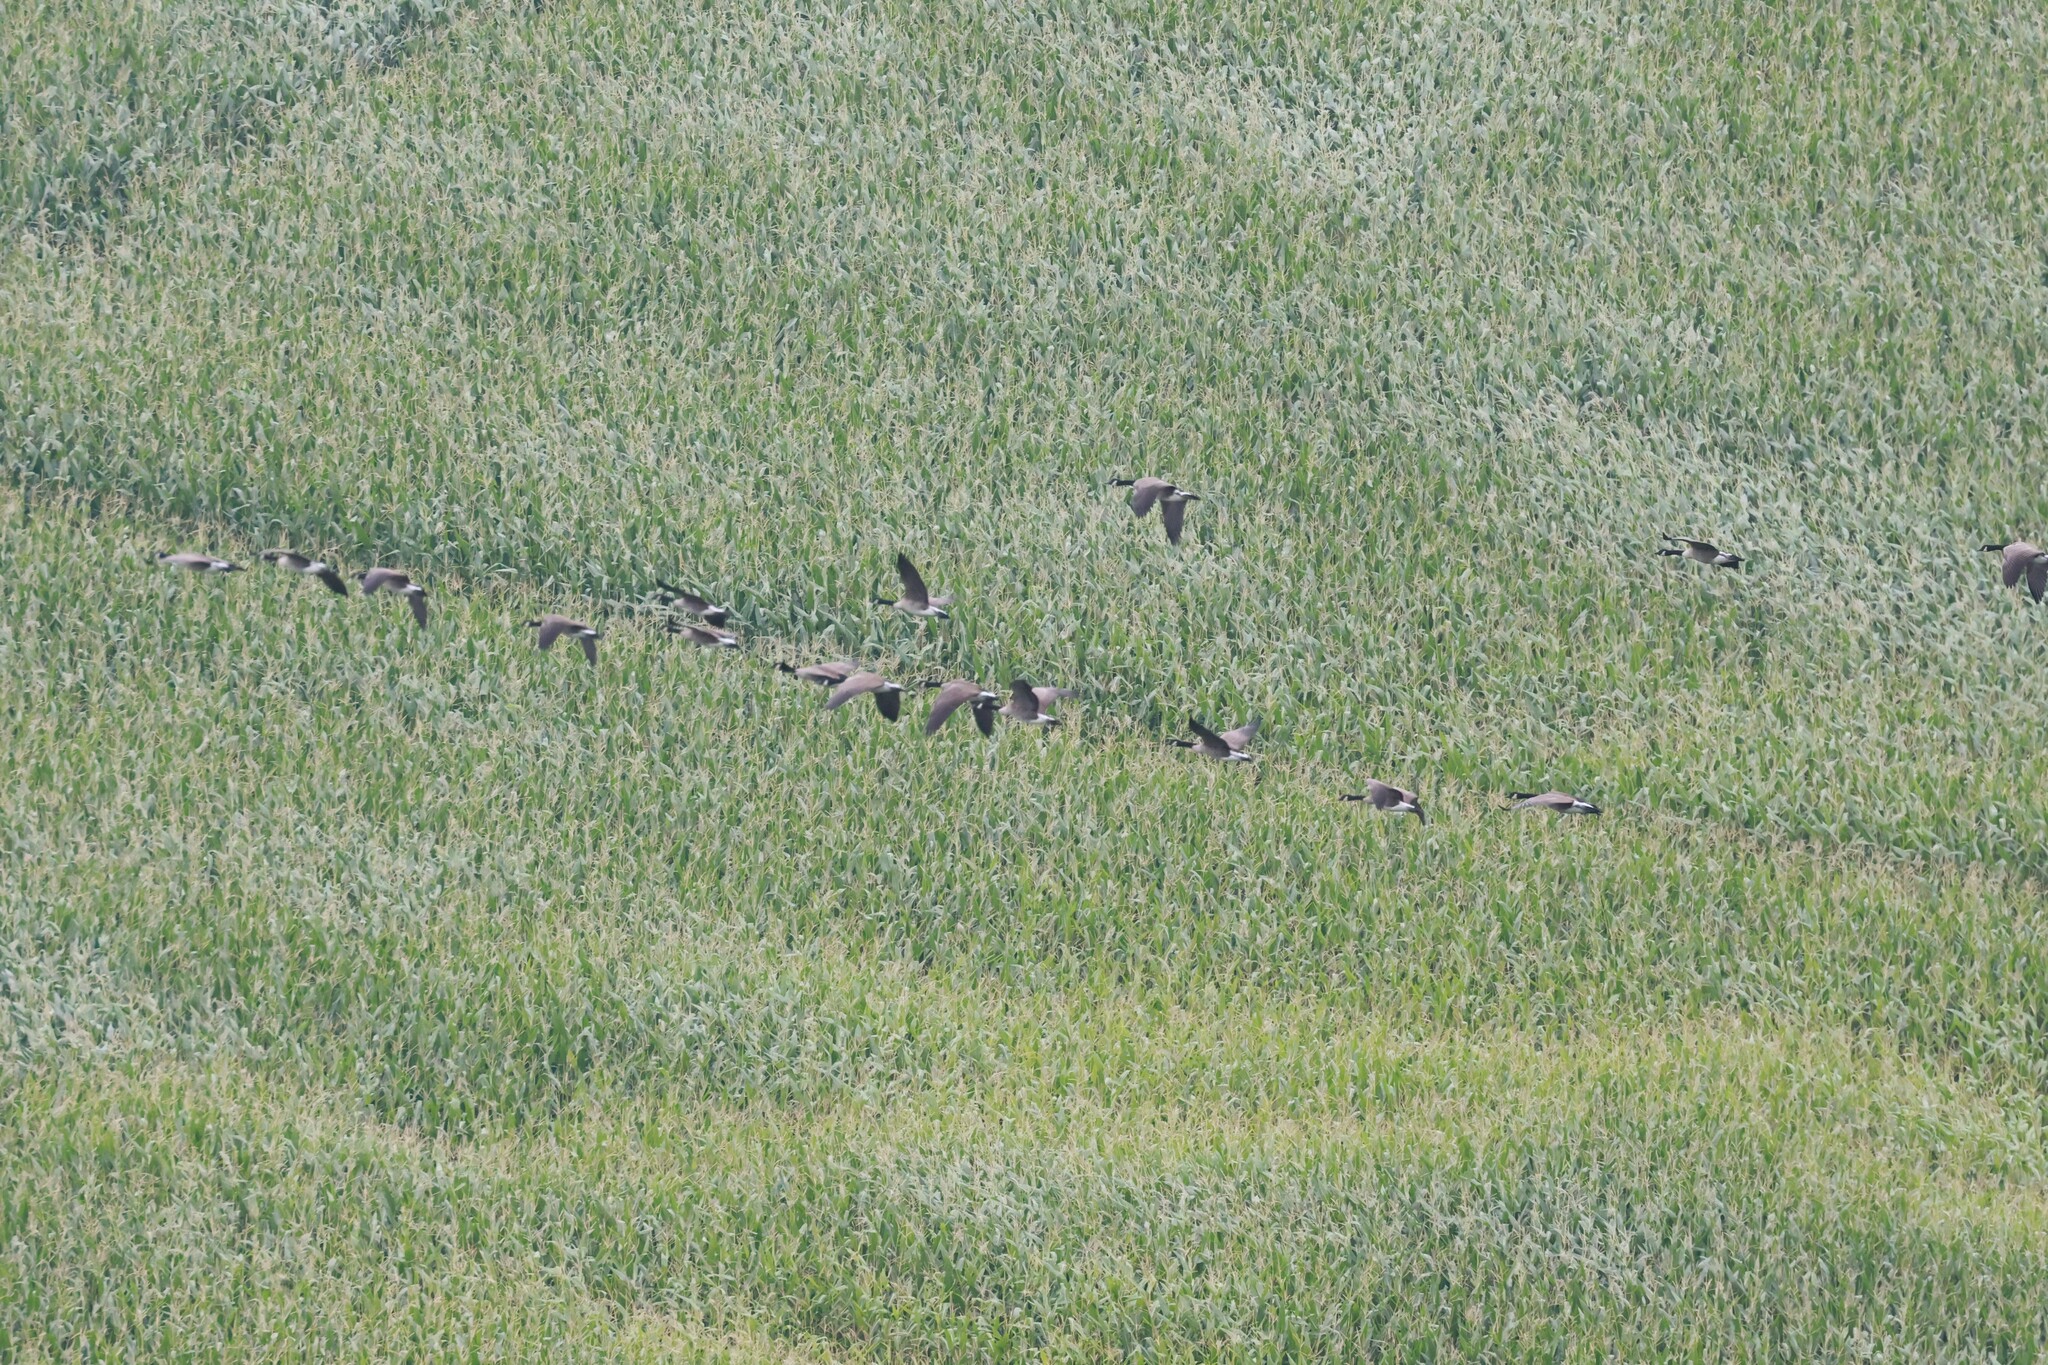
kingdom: Animalia
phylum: Chordata
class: Aves
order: Anseriformes
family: Anatidae
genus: Branta
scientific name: Branta canadensis
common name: Canada goose
